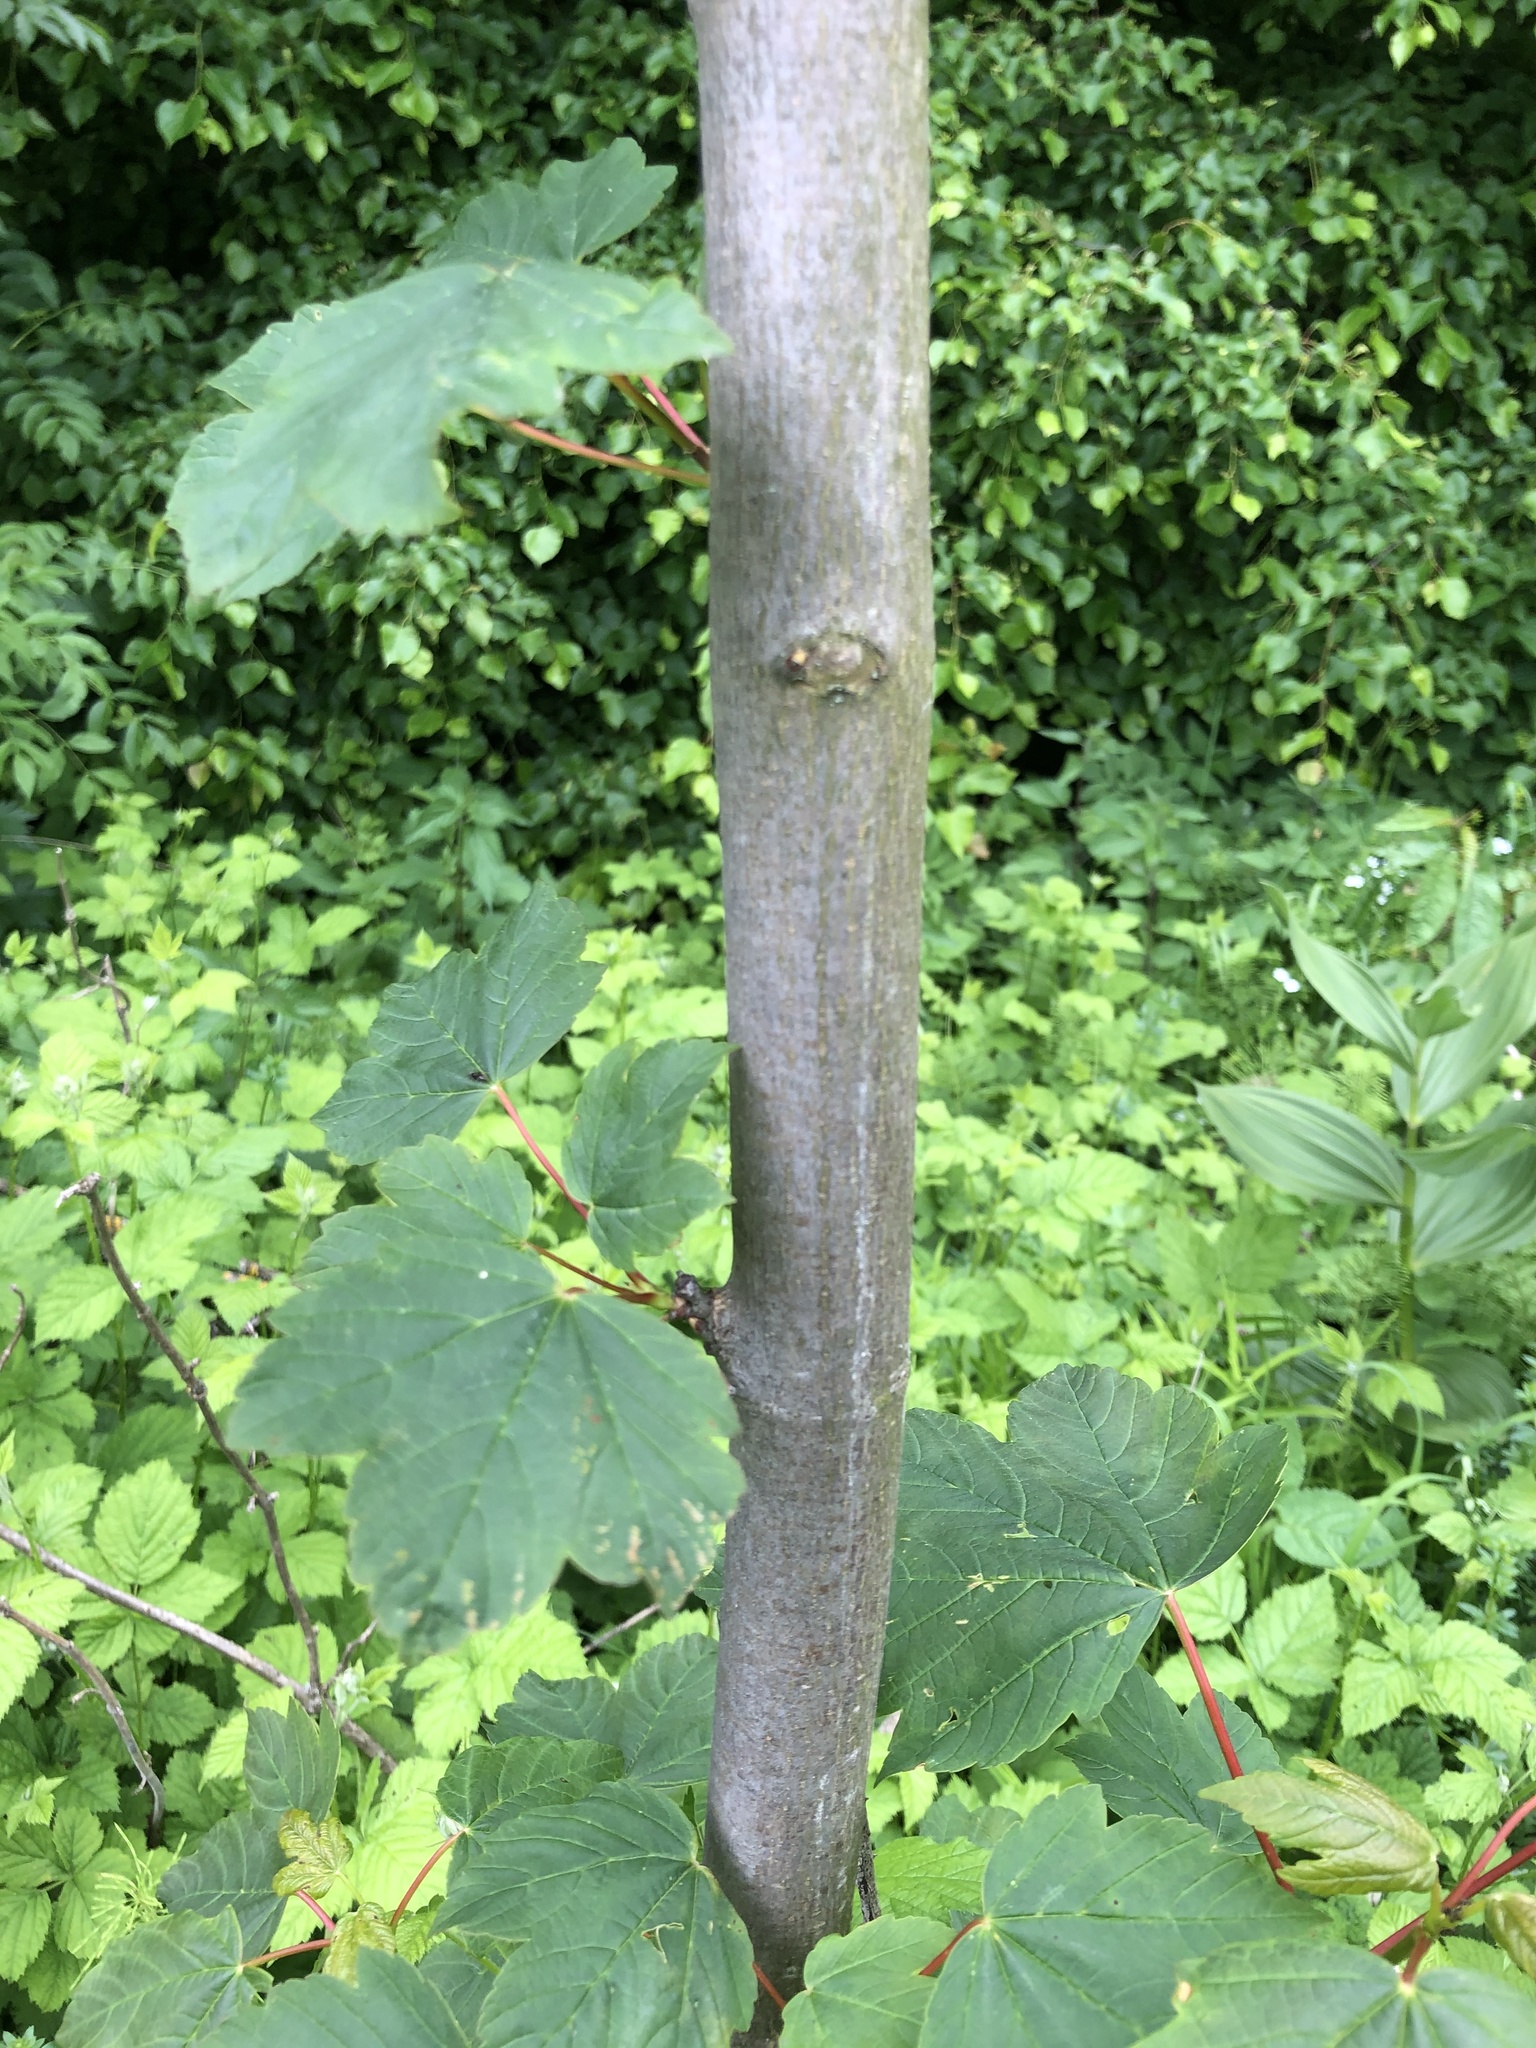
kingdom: Plantae
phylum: Tracheophyta
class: Magnoliopsida
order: Sapindales
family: Sapindaceae
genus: Acer
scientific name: Acer pseudoplatanus
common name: Sycamore
